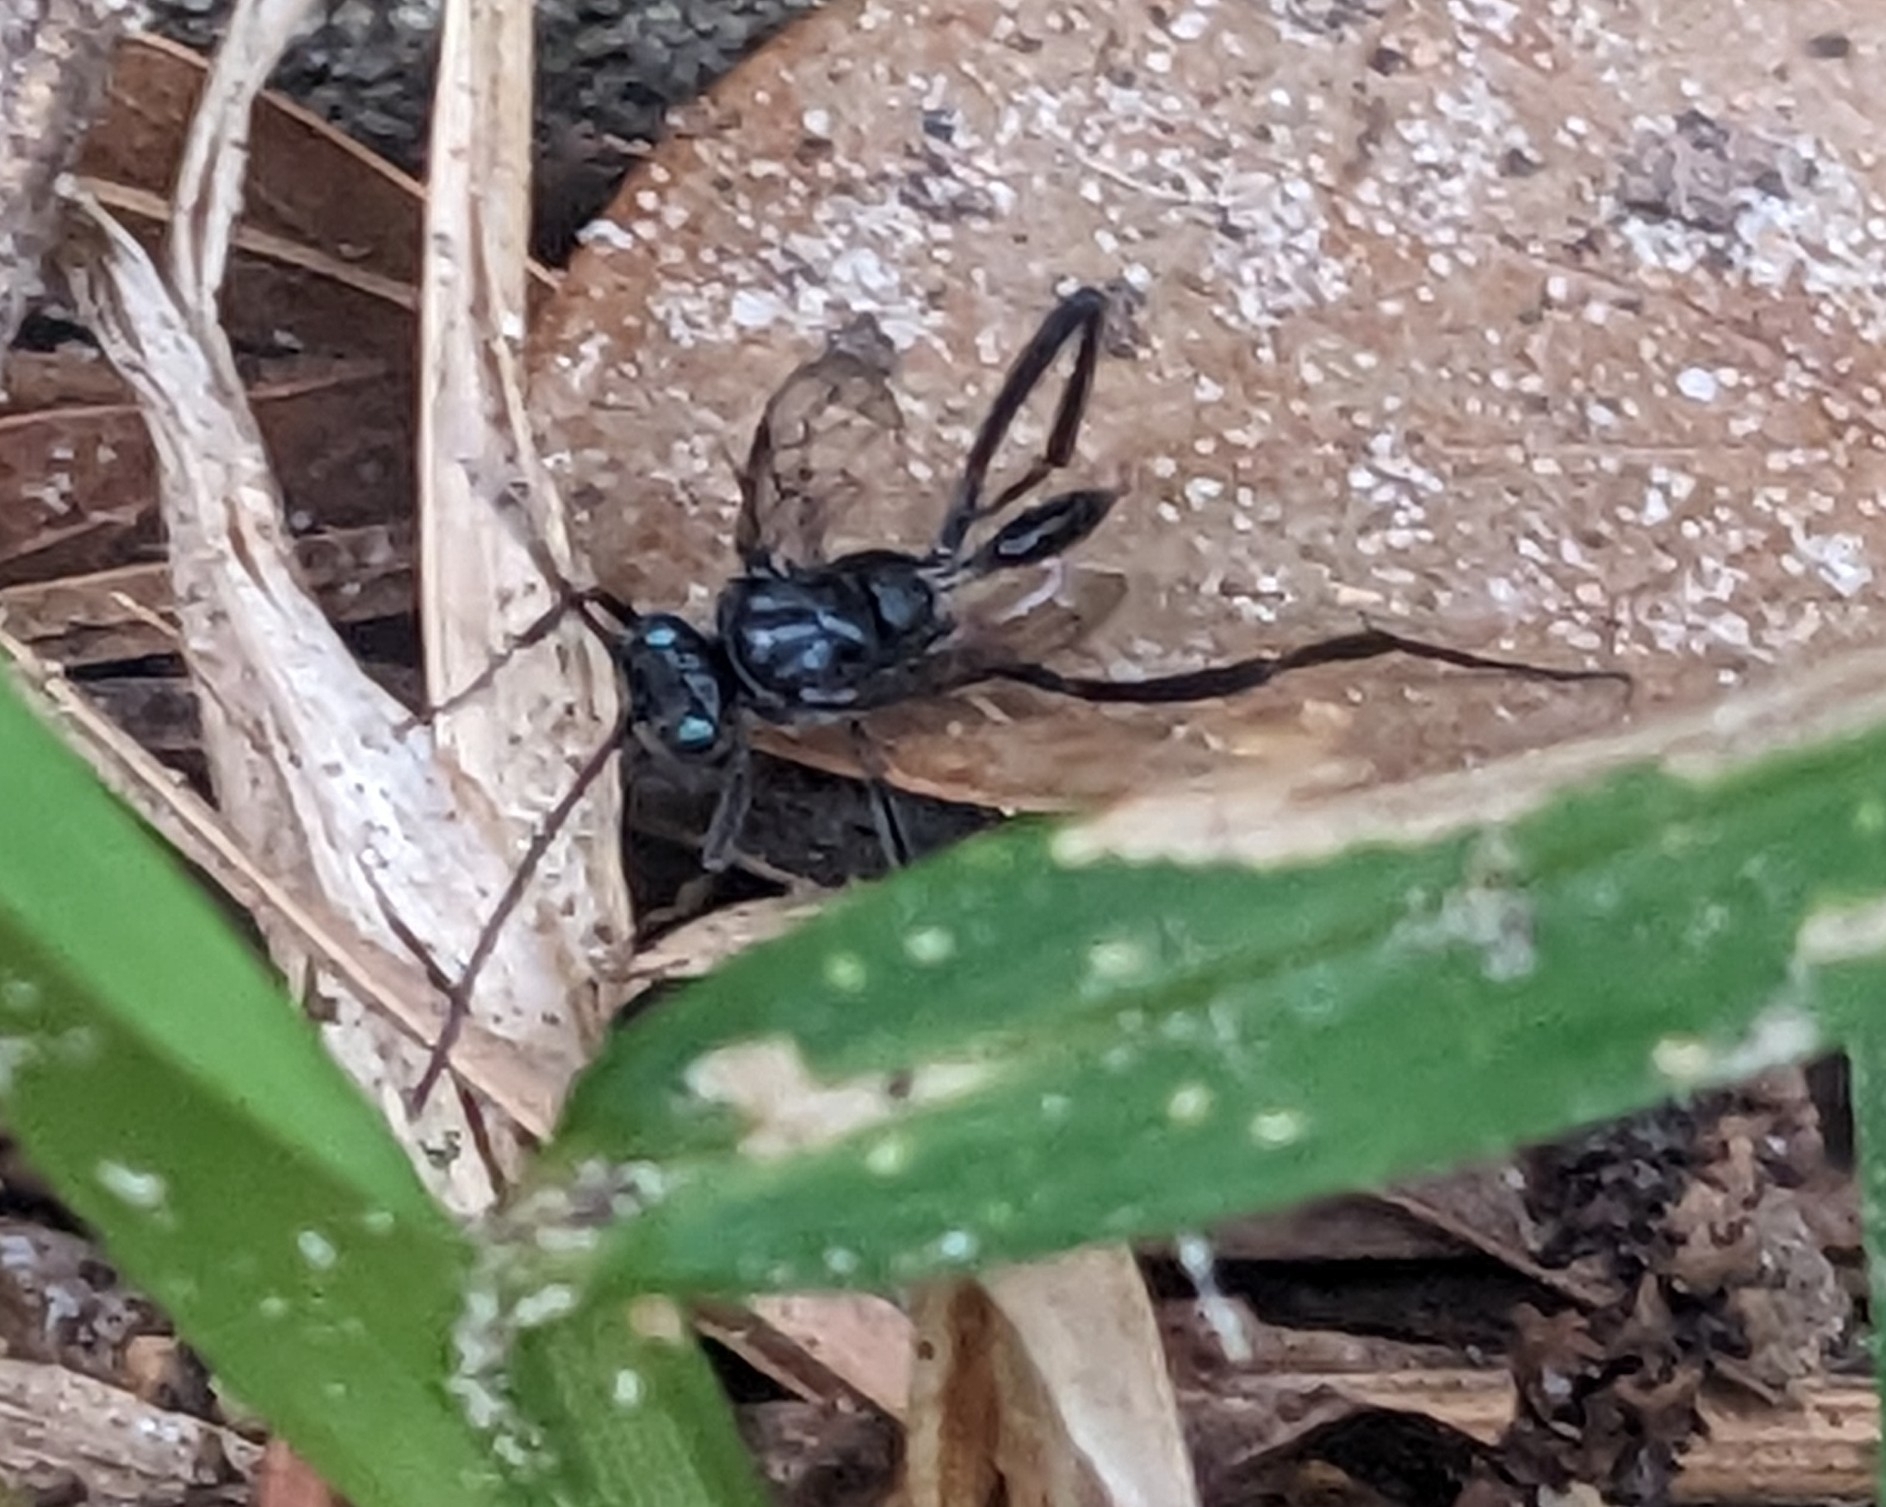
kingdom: Animalia
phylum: Arthropoda
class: Insecta
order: Hymenoptera
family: Evaniidae
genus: Evania
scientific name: Evania appendigaster
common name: Ensign wasp
